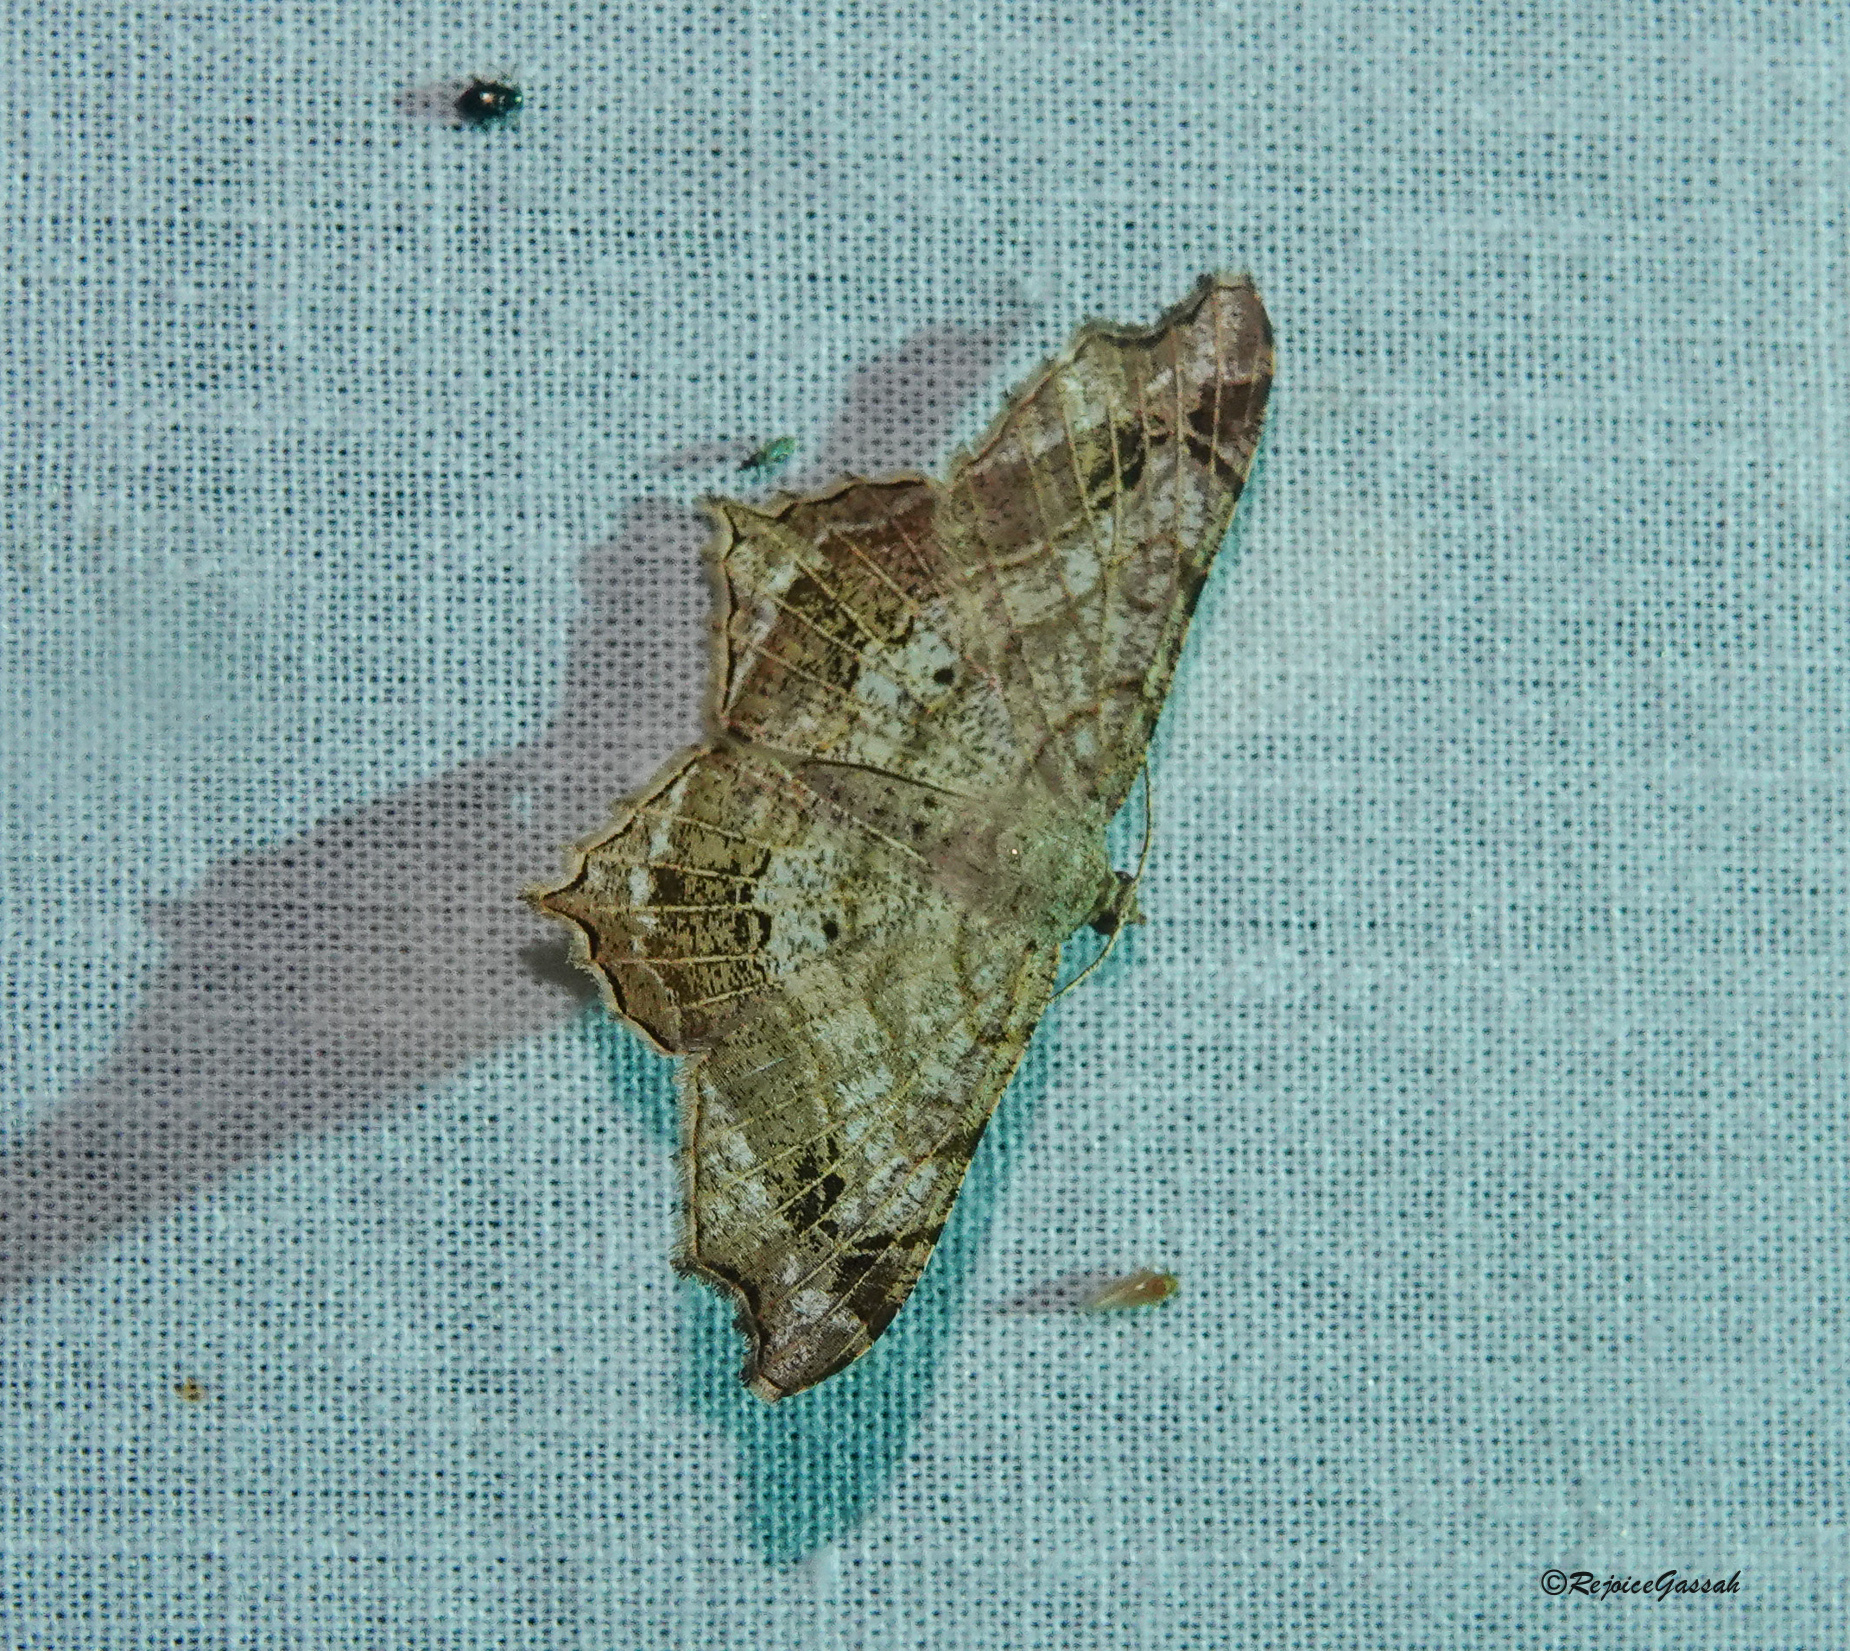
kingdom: Animalia
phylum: Arthropoda
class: Insecta
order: Lepidoptera
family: Geometridae
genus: Chiasmia
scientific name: Chiasmia emersaria
